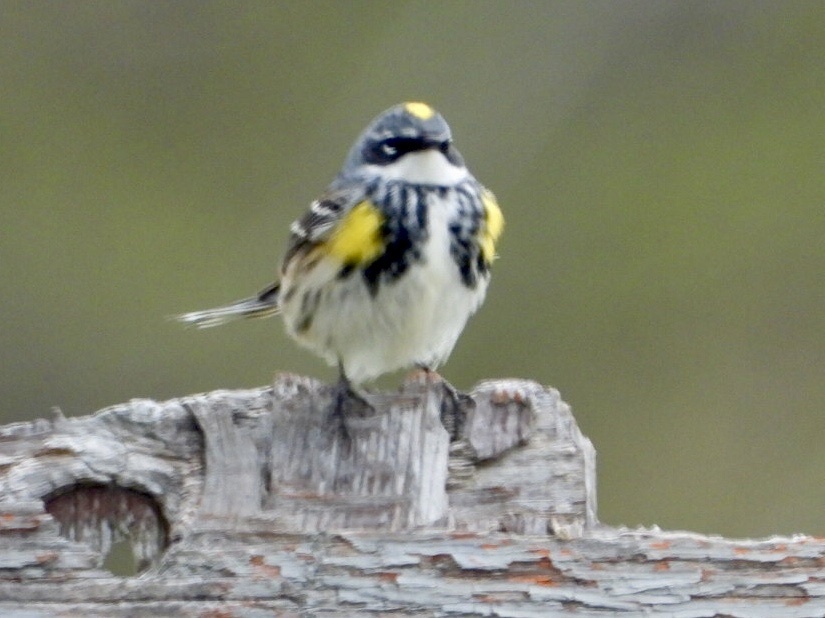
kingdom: Animalia
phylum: Chordata
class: Aves
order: Passeriformes
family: Parulidae
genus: Setophaga
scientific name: Setophaga coronata
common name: Myrtle warbler
